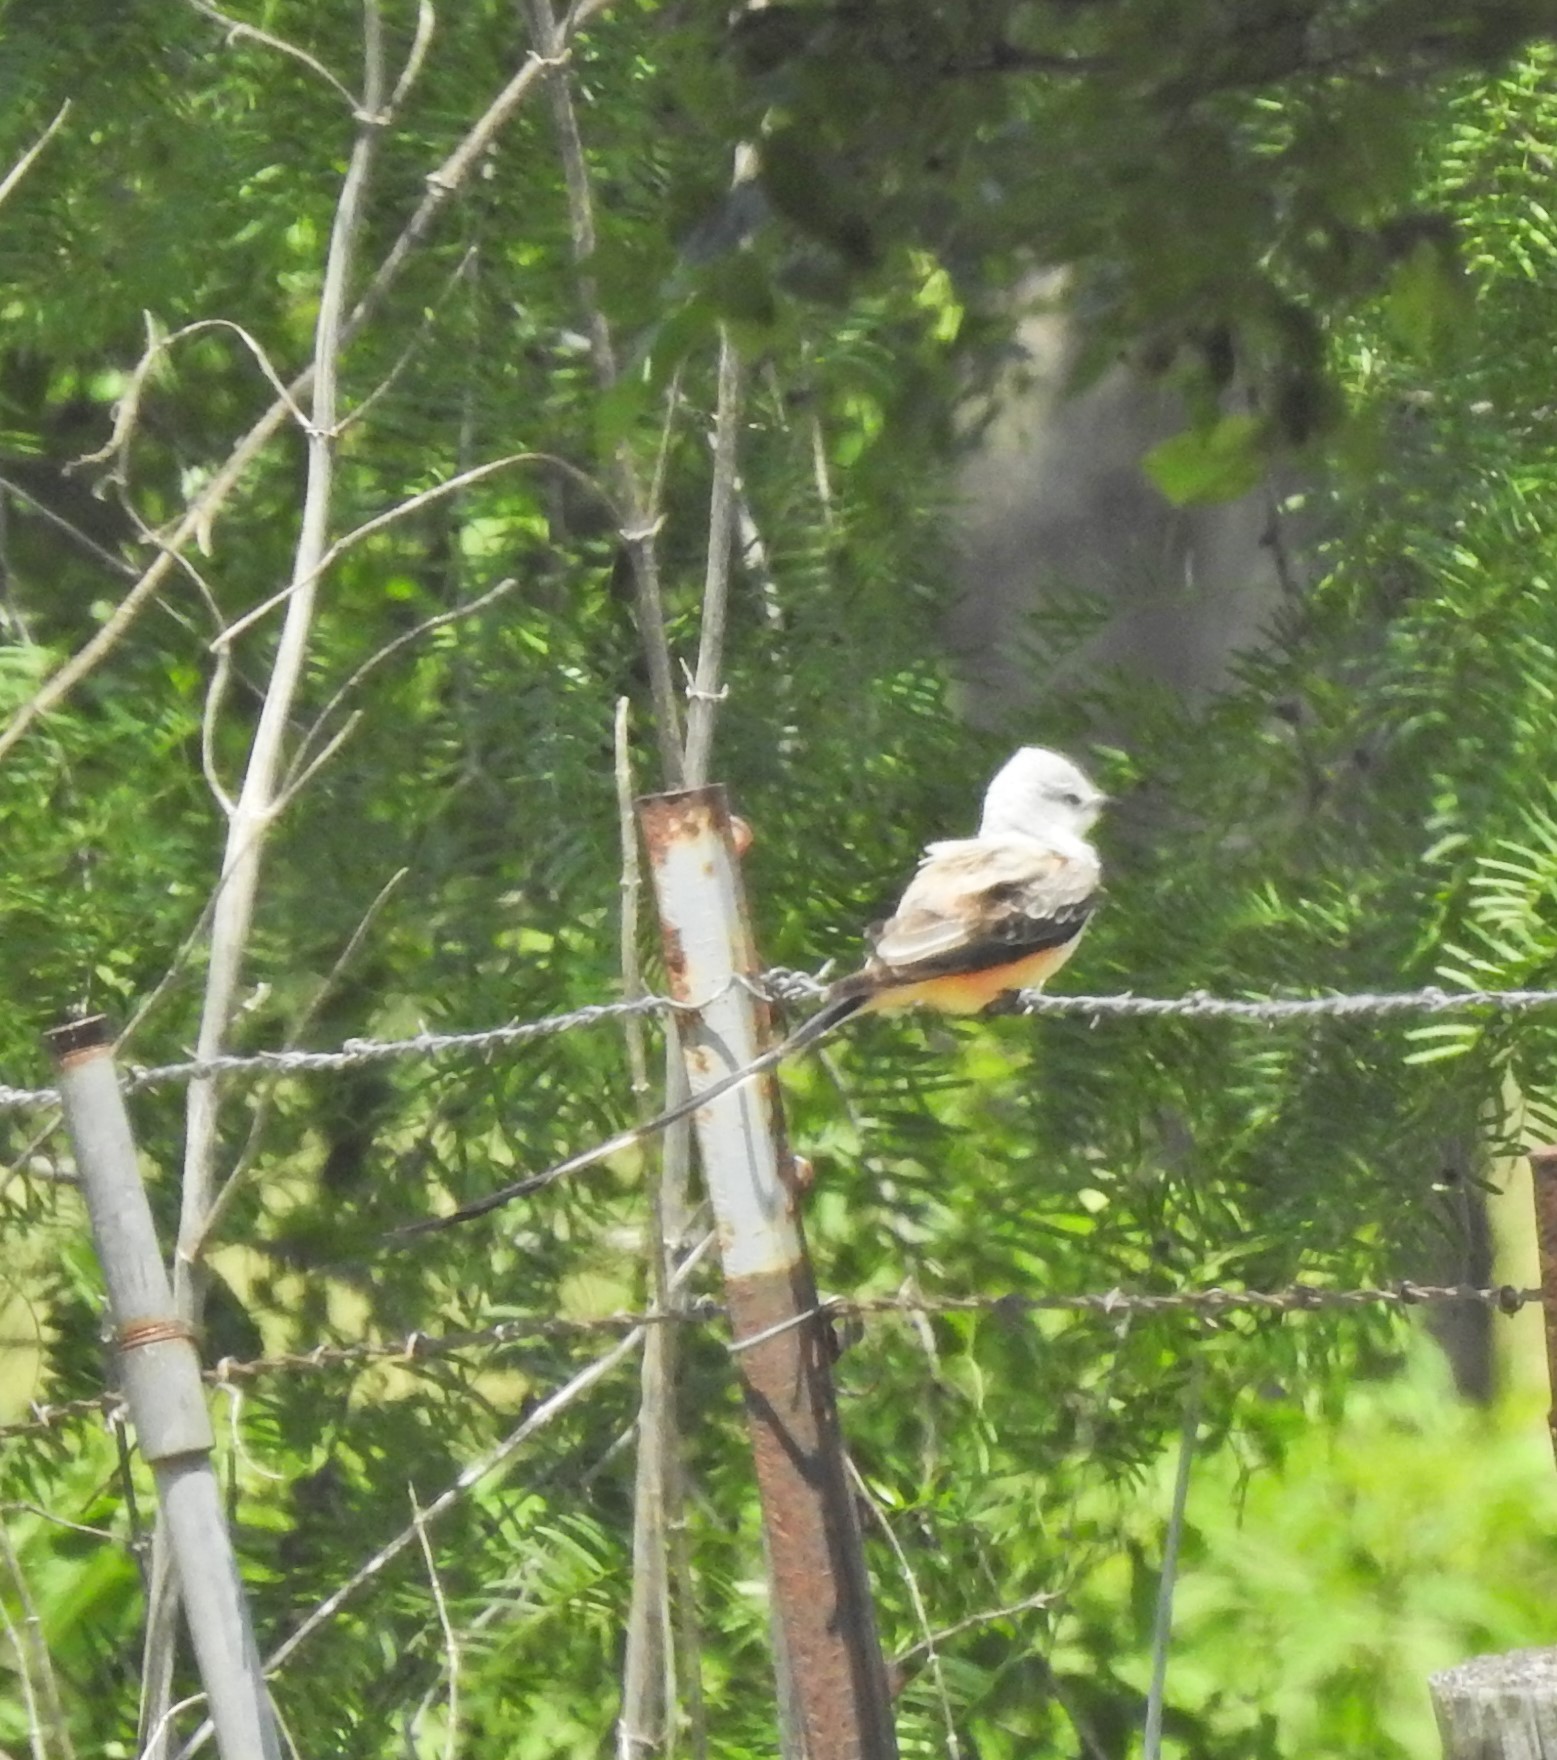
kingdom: Animalia
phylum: Chordata
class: Aves
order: Passeriformes
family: Tyrannidae
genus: Tyrannus
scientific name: Tyrannus forficatus
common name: Scissor-tailed flycatcher
